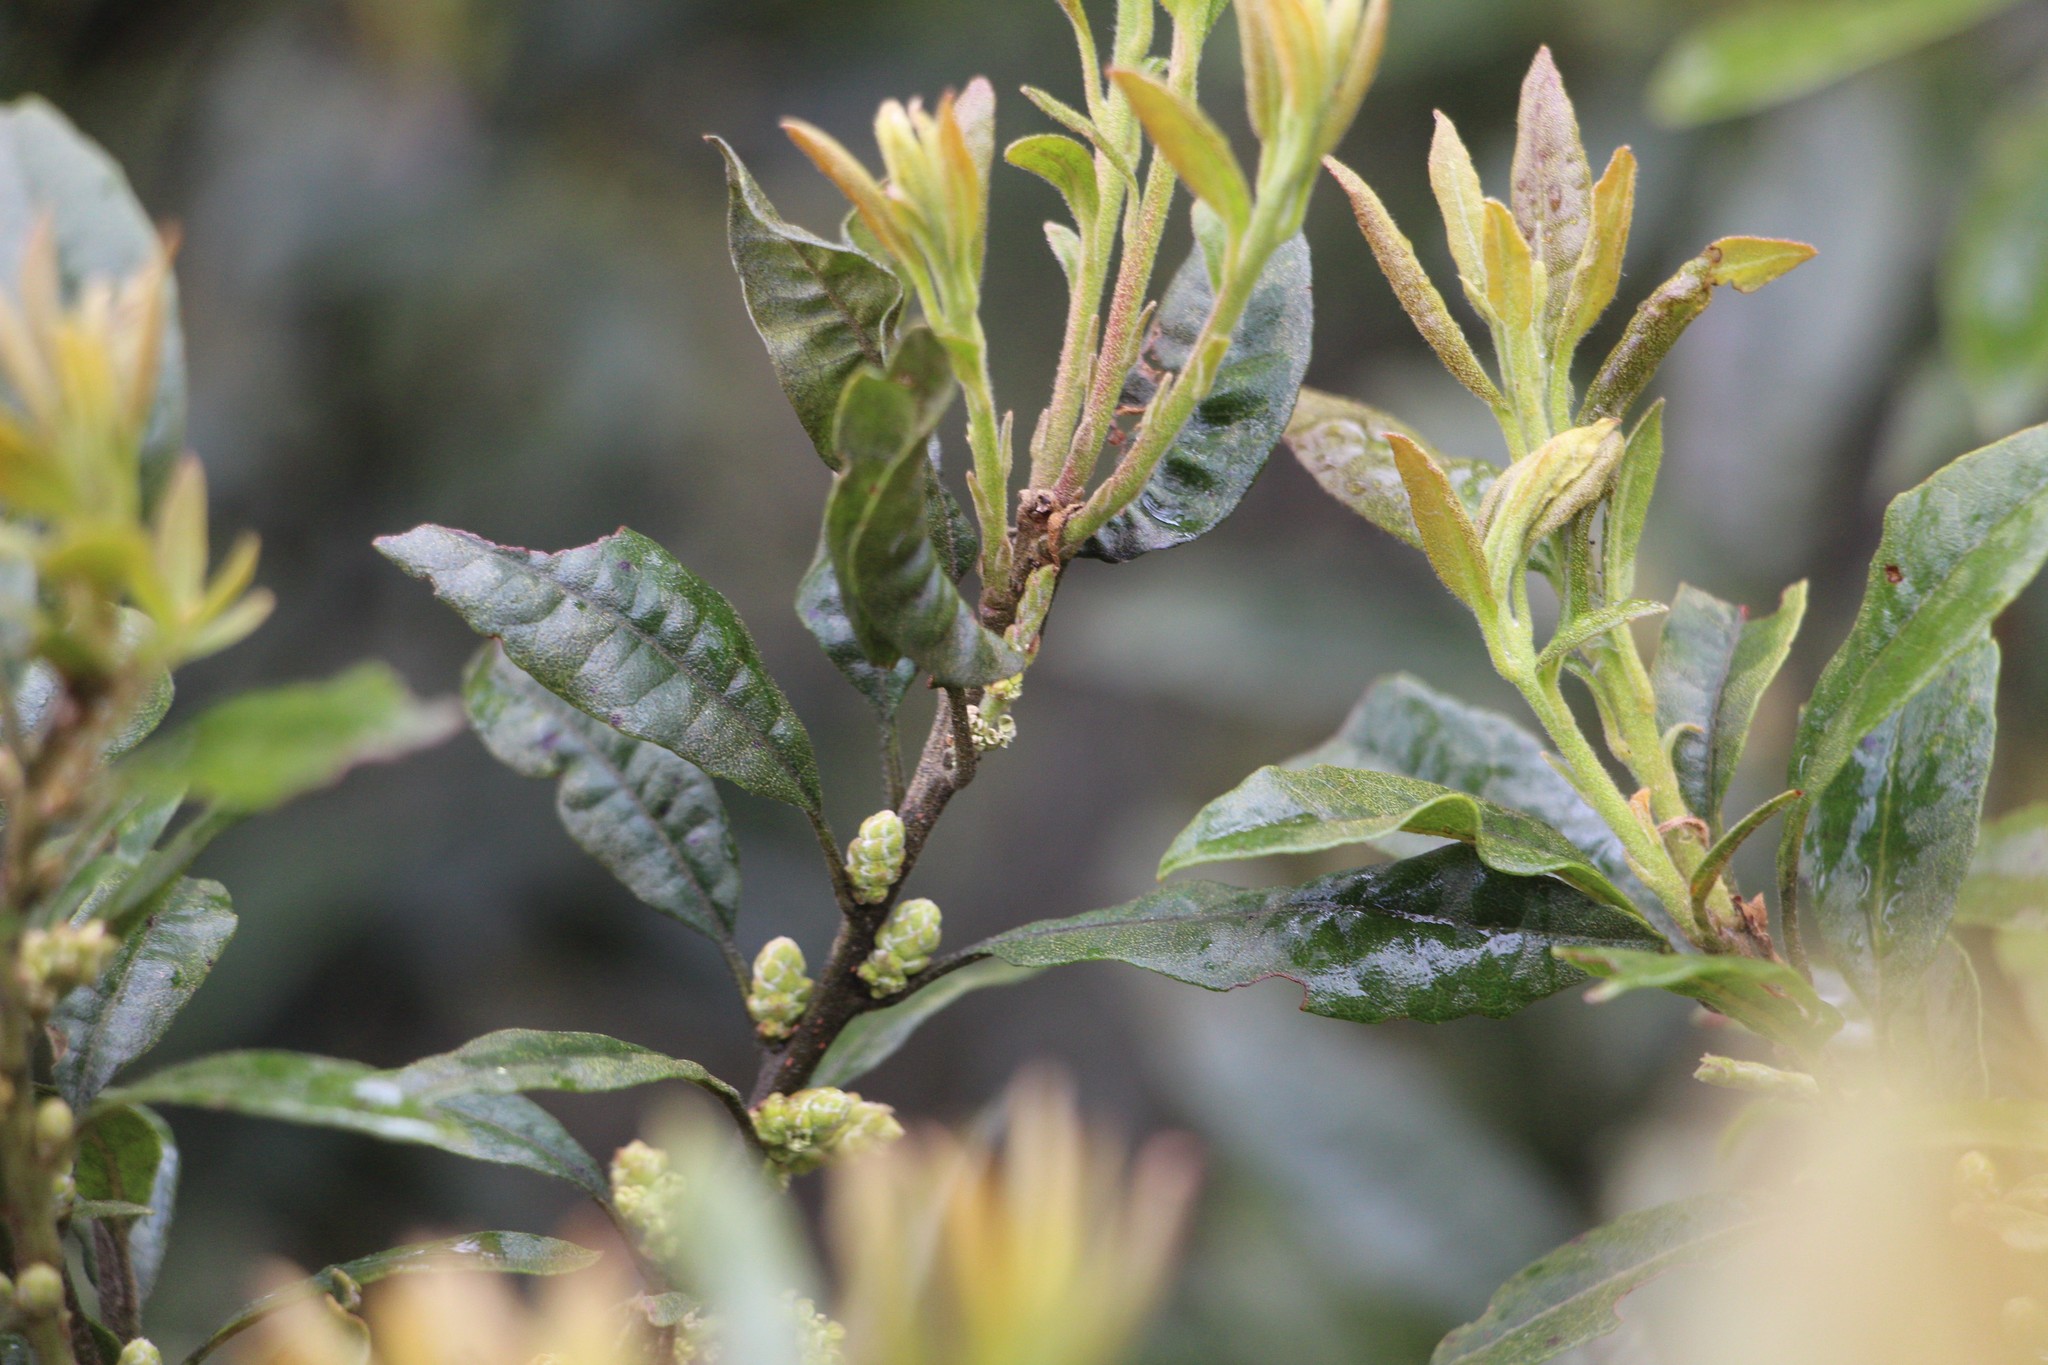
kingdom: Plantae
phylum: Tracheophyta
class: Magnoliopsida
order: Fagales
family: Myricaceae
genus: Morella
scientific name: Morella parvifolia
